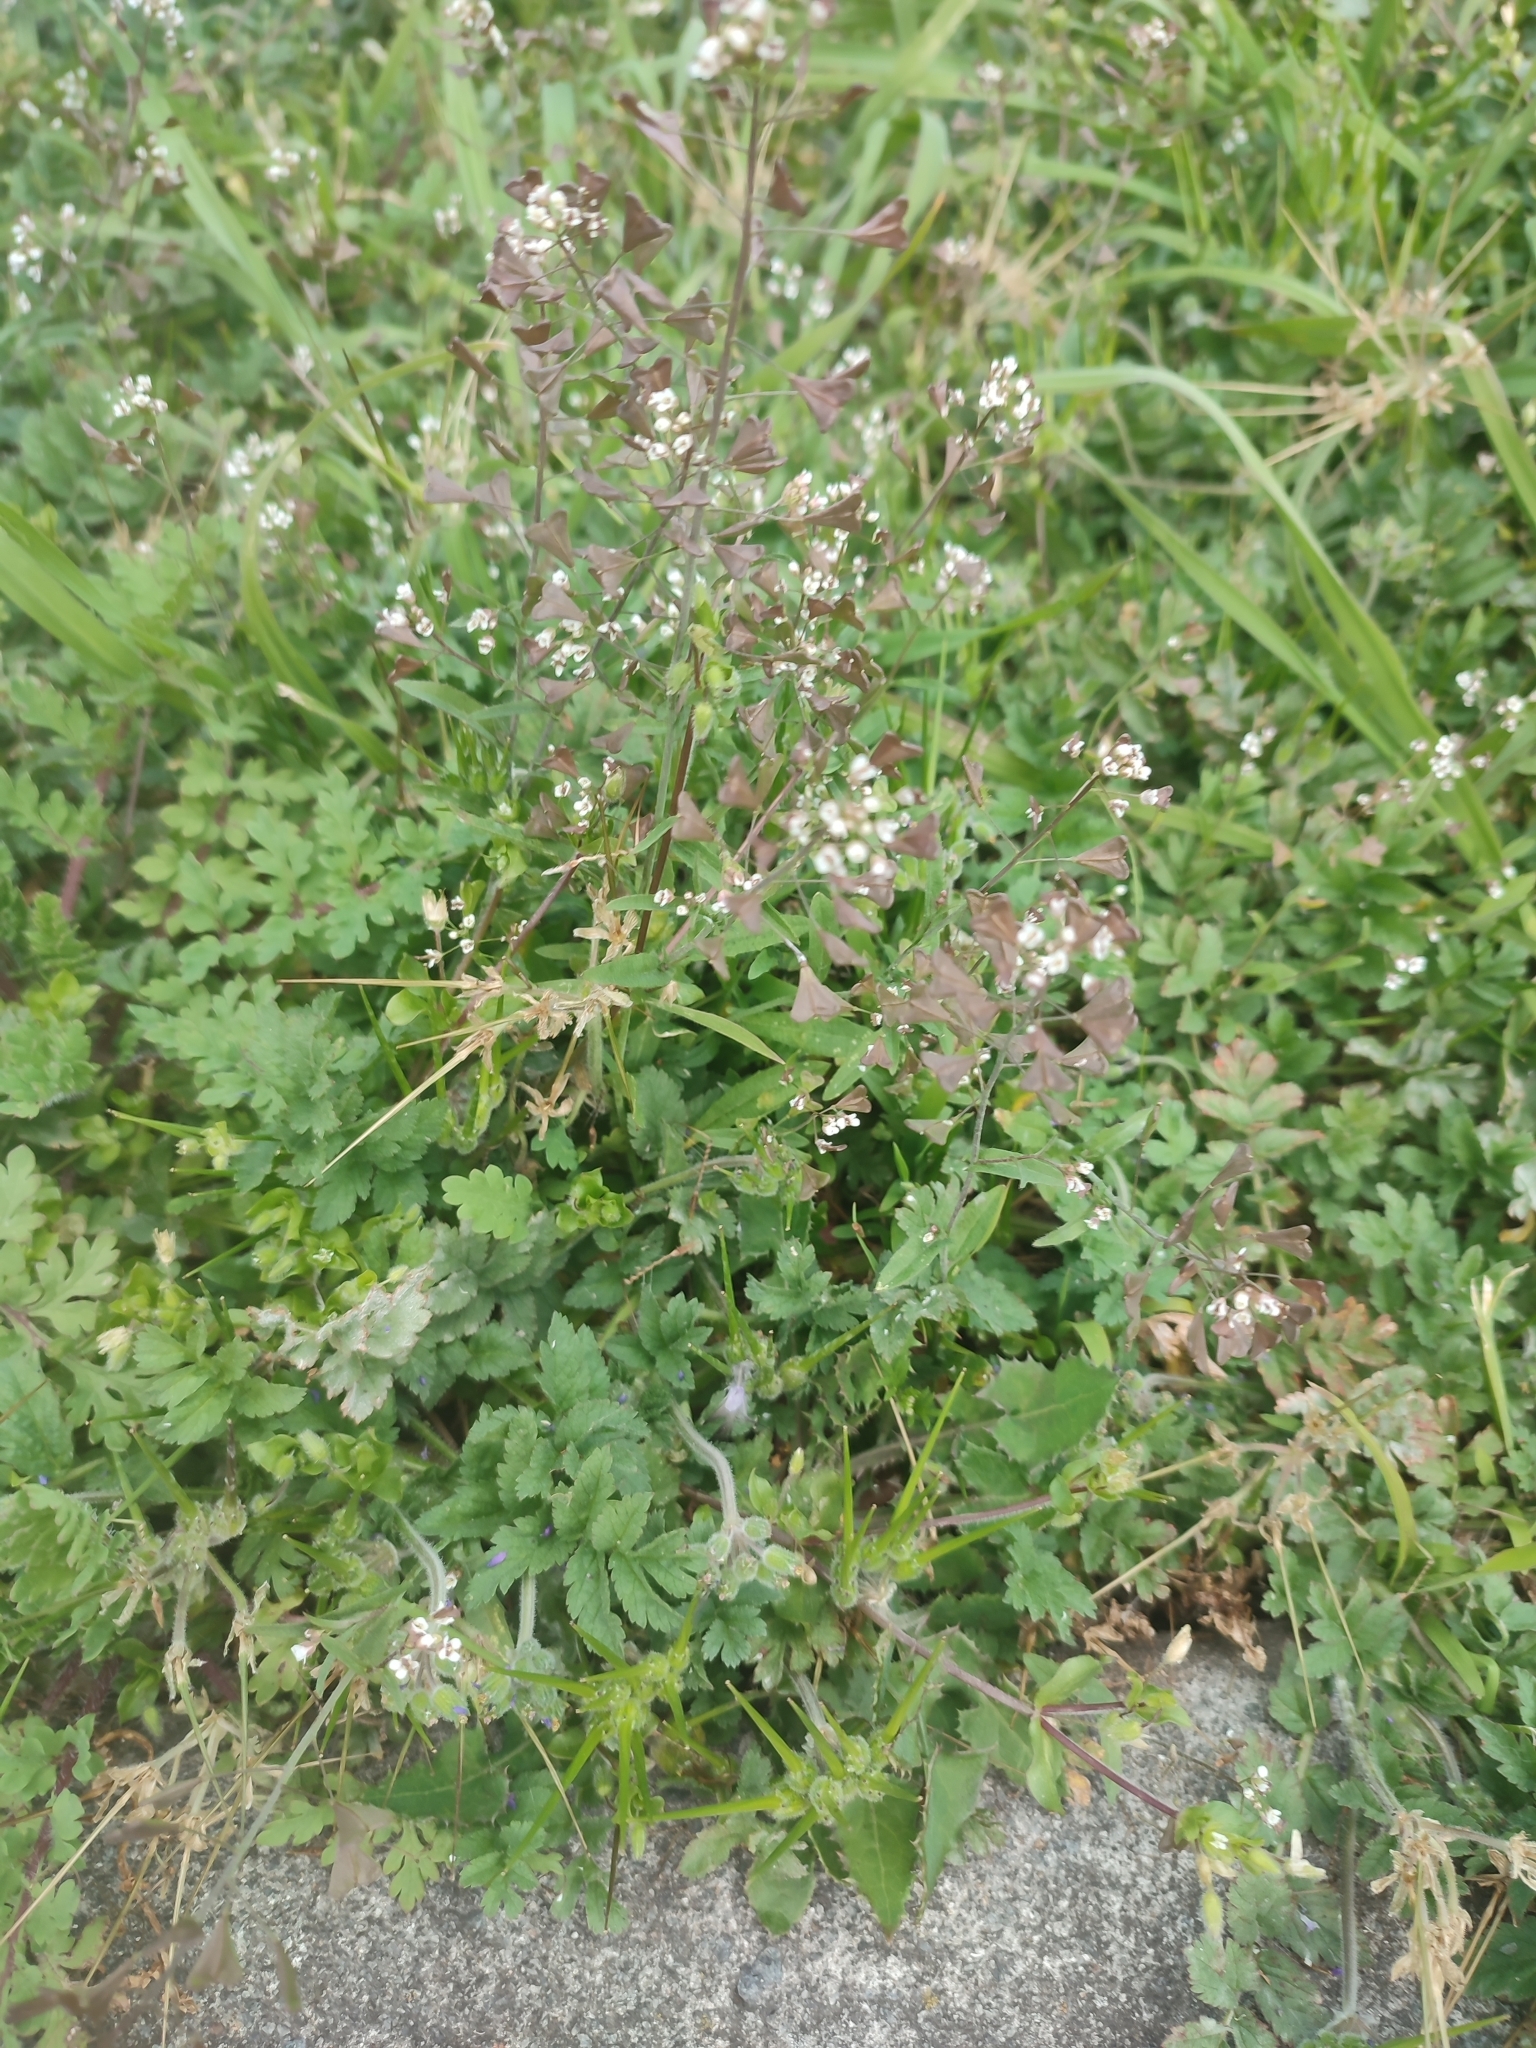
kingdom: Plantae
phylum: Tracheophyta
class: Magnoliopsida
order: Brassicales
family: Brassicaceae
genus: Capsella
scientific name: Capsella bursa-pastoris
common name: Shepherd's purse
